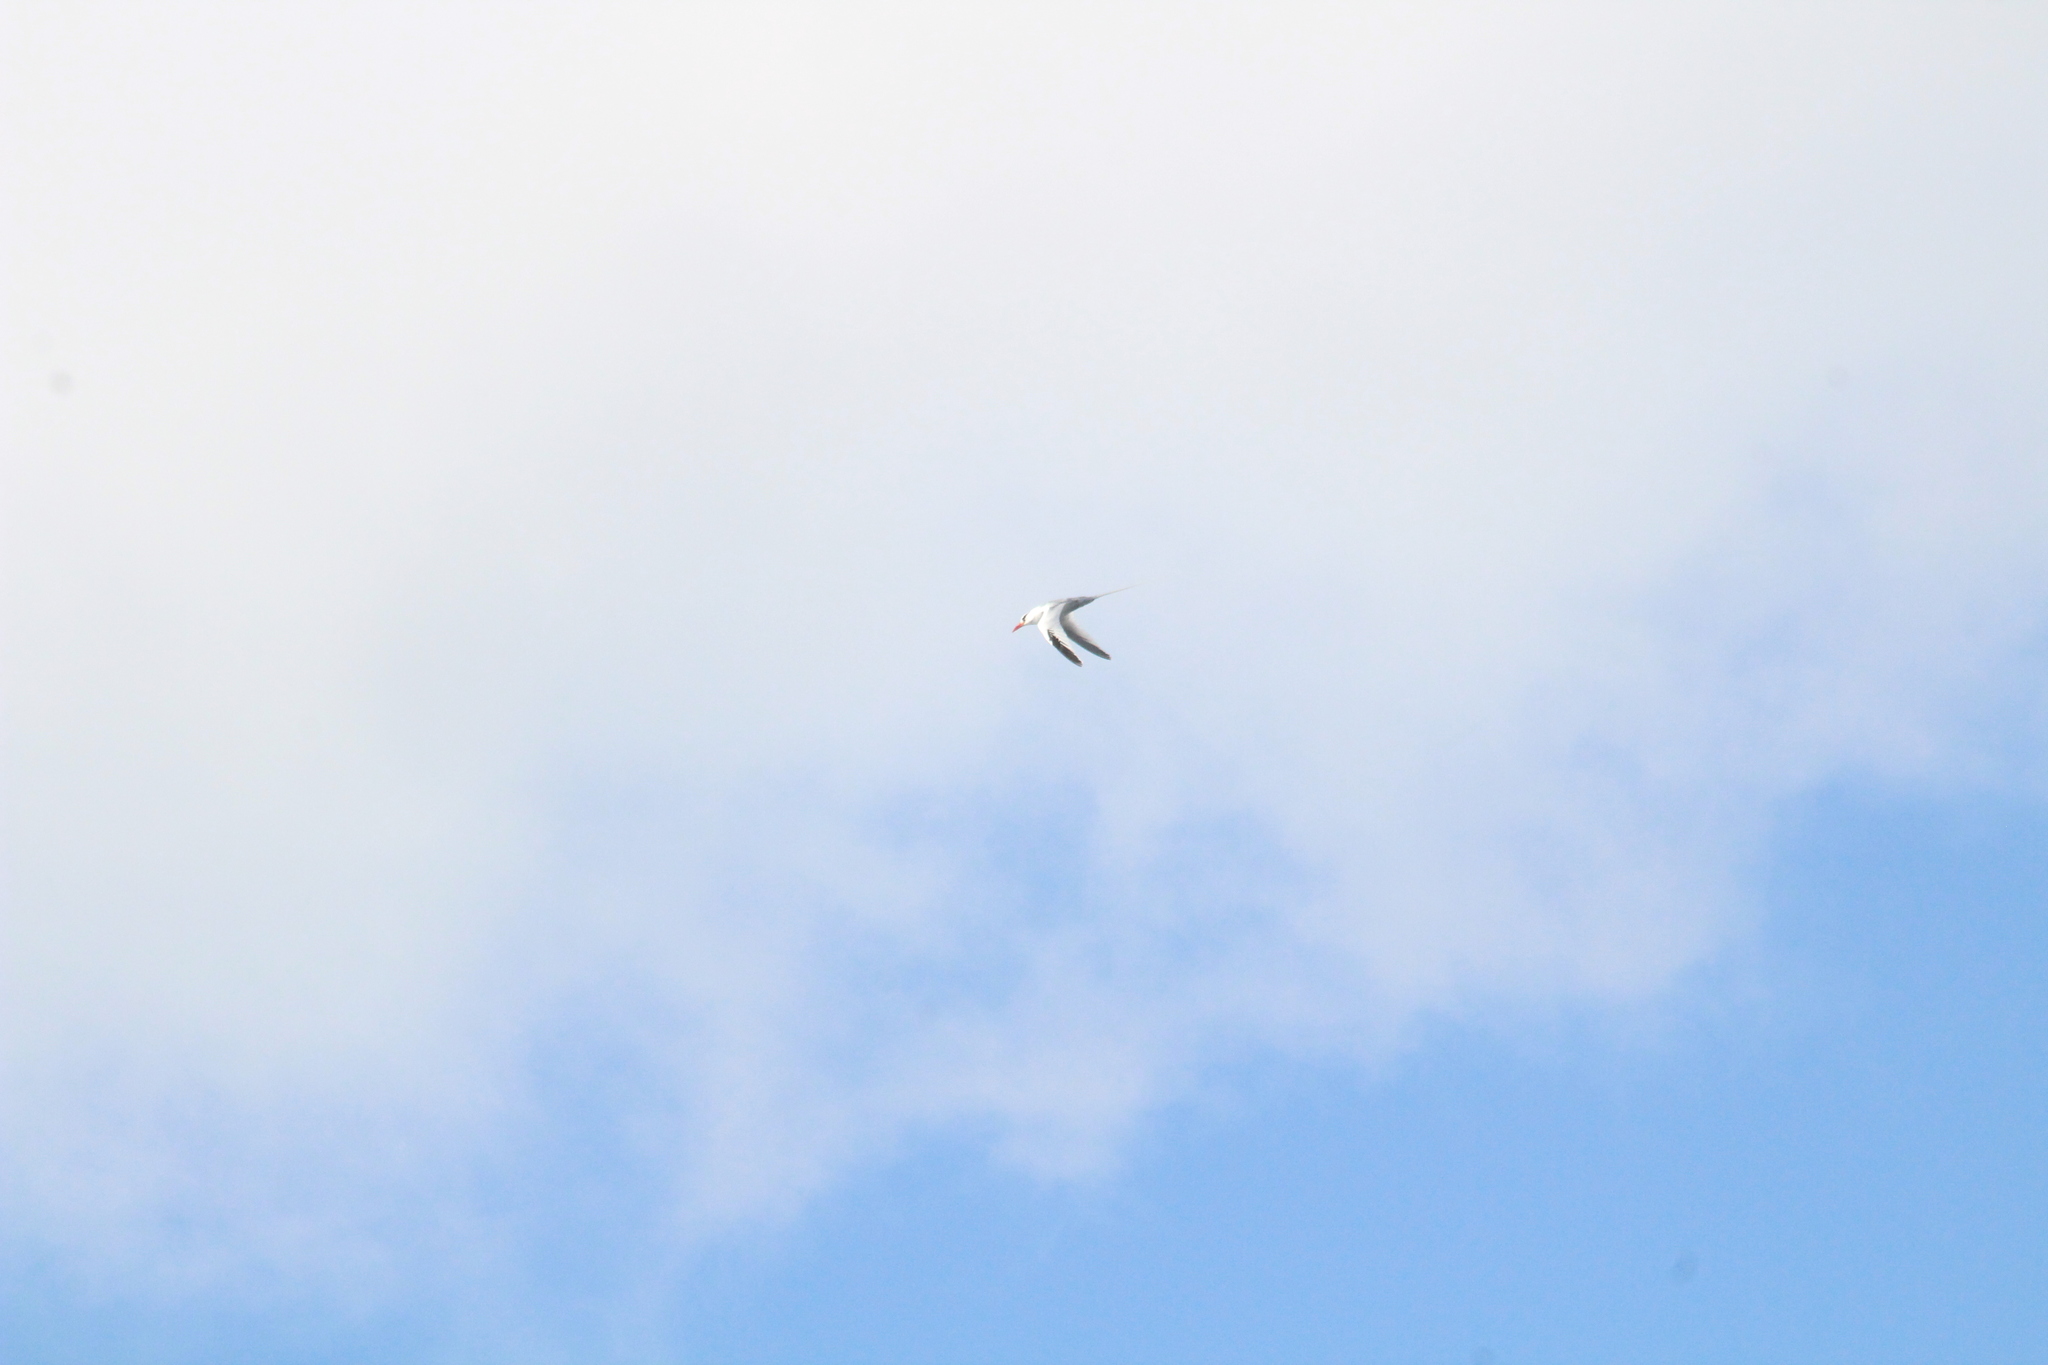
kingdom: Animalia
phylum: Chordata
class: Aves
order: Phaethontiformes
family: Phaethontidae
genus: Phaethon
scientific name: Phaethon aethereus
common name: Red-billed tropicbird
